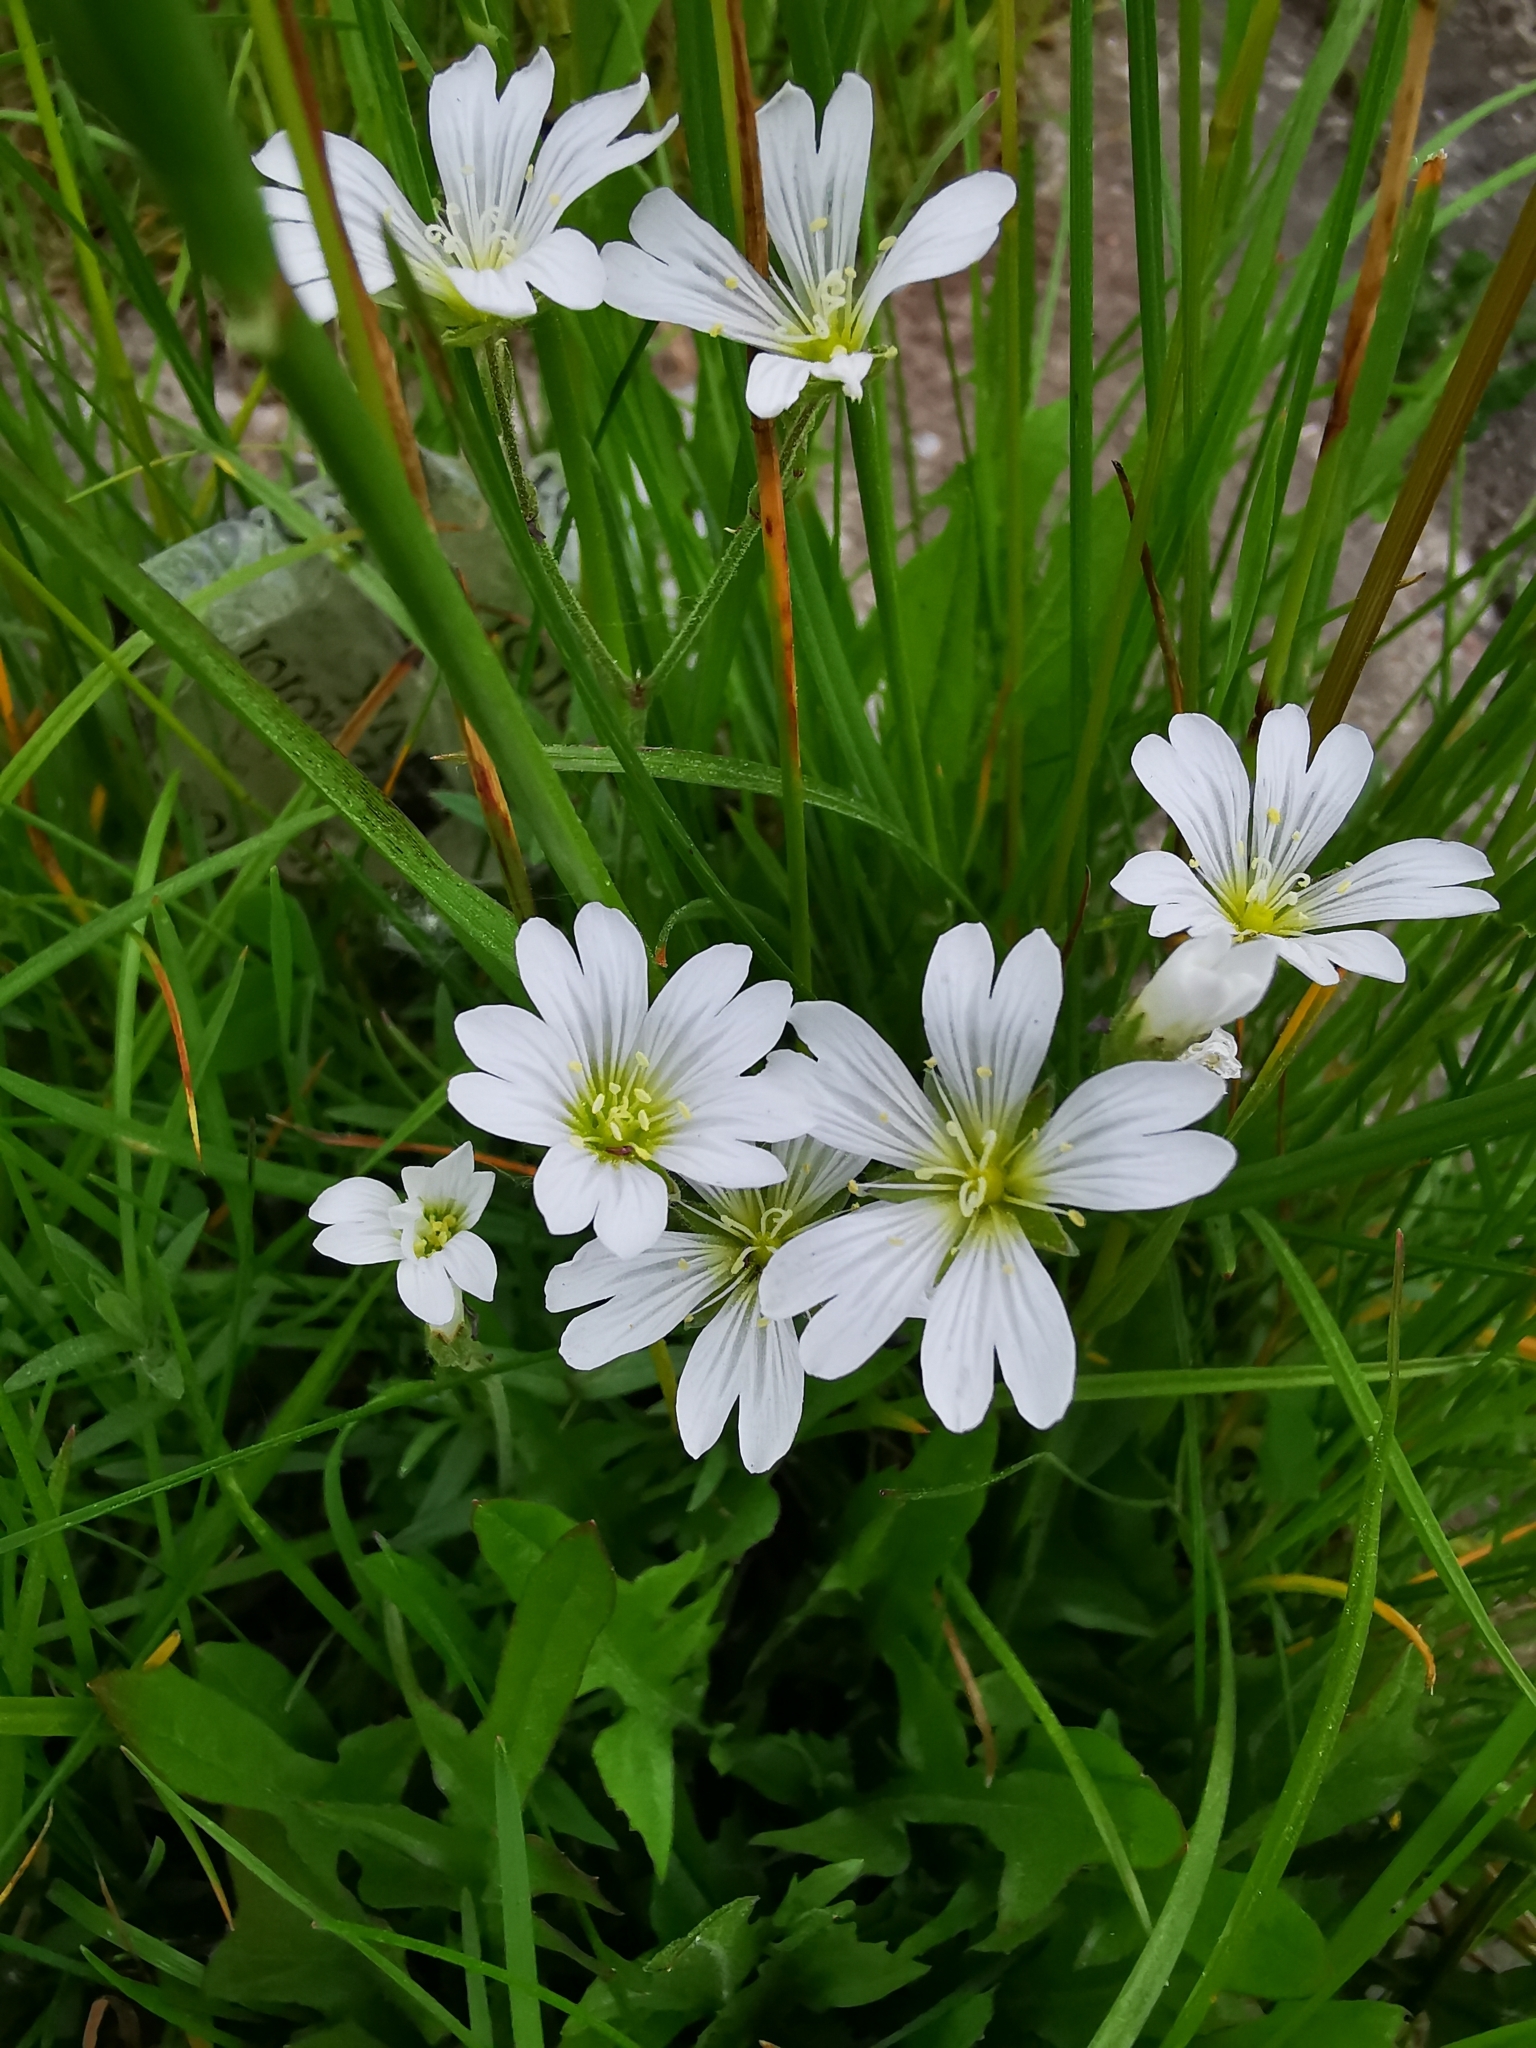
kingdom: Plantae
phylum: Tracheophyta
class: Magnoliopsida
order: Caryophyllales
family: Caryophyllaceae
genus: Cerastium
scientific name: Cerastium arvense
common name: Field mouse-ear
